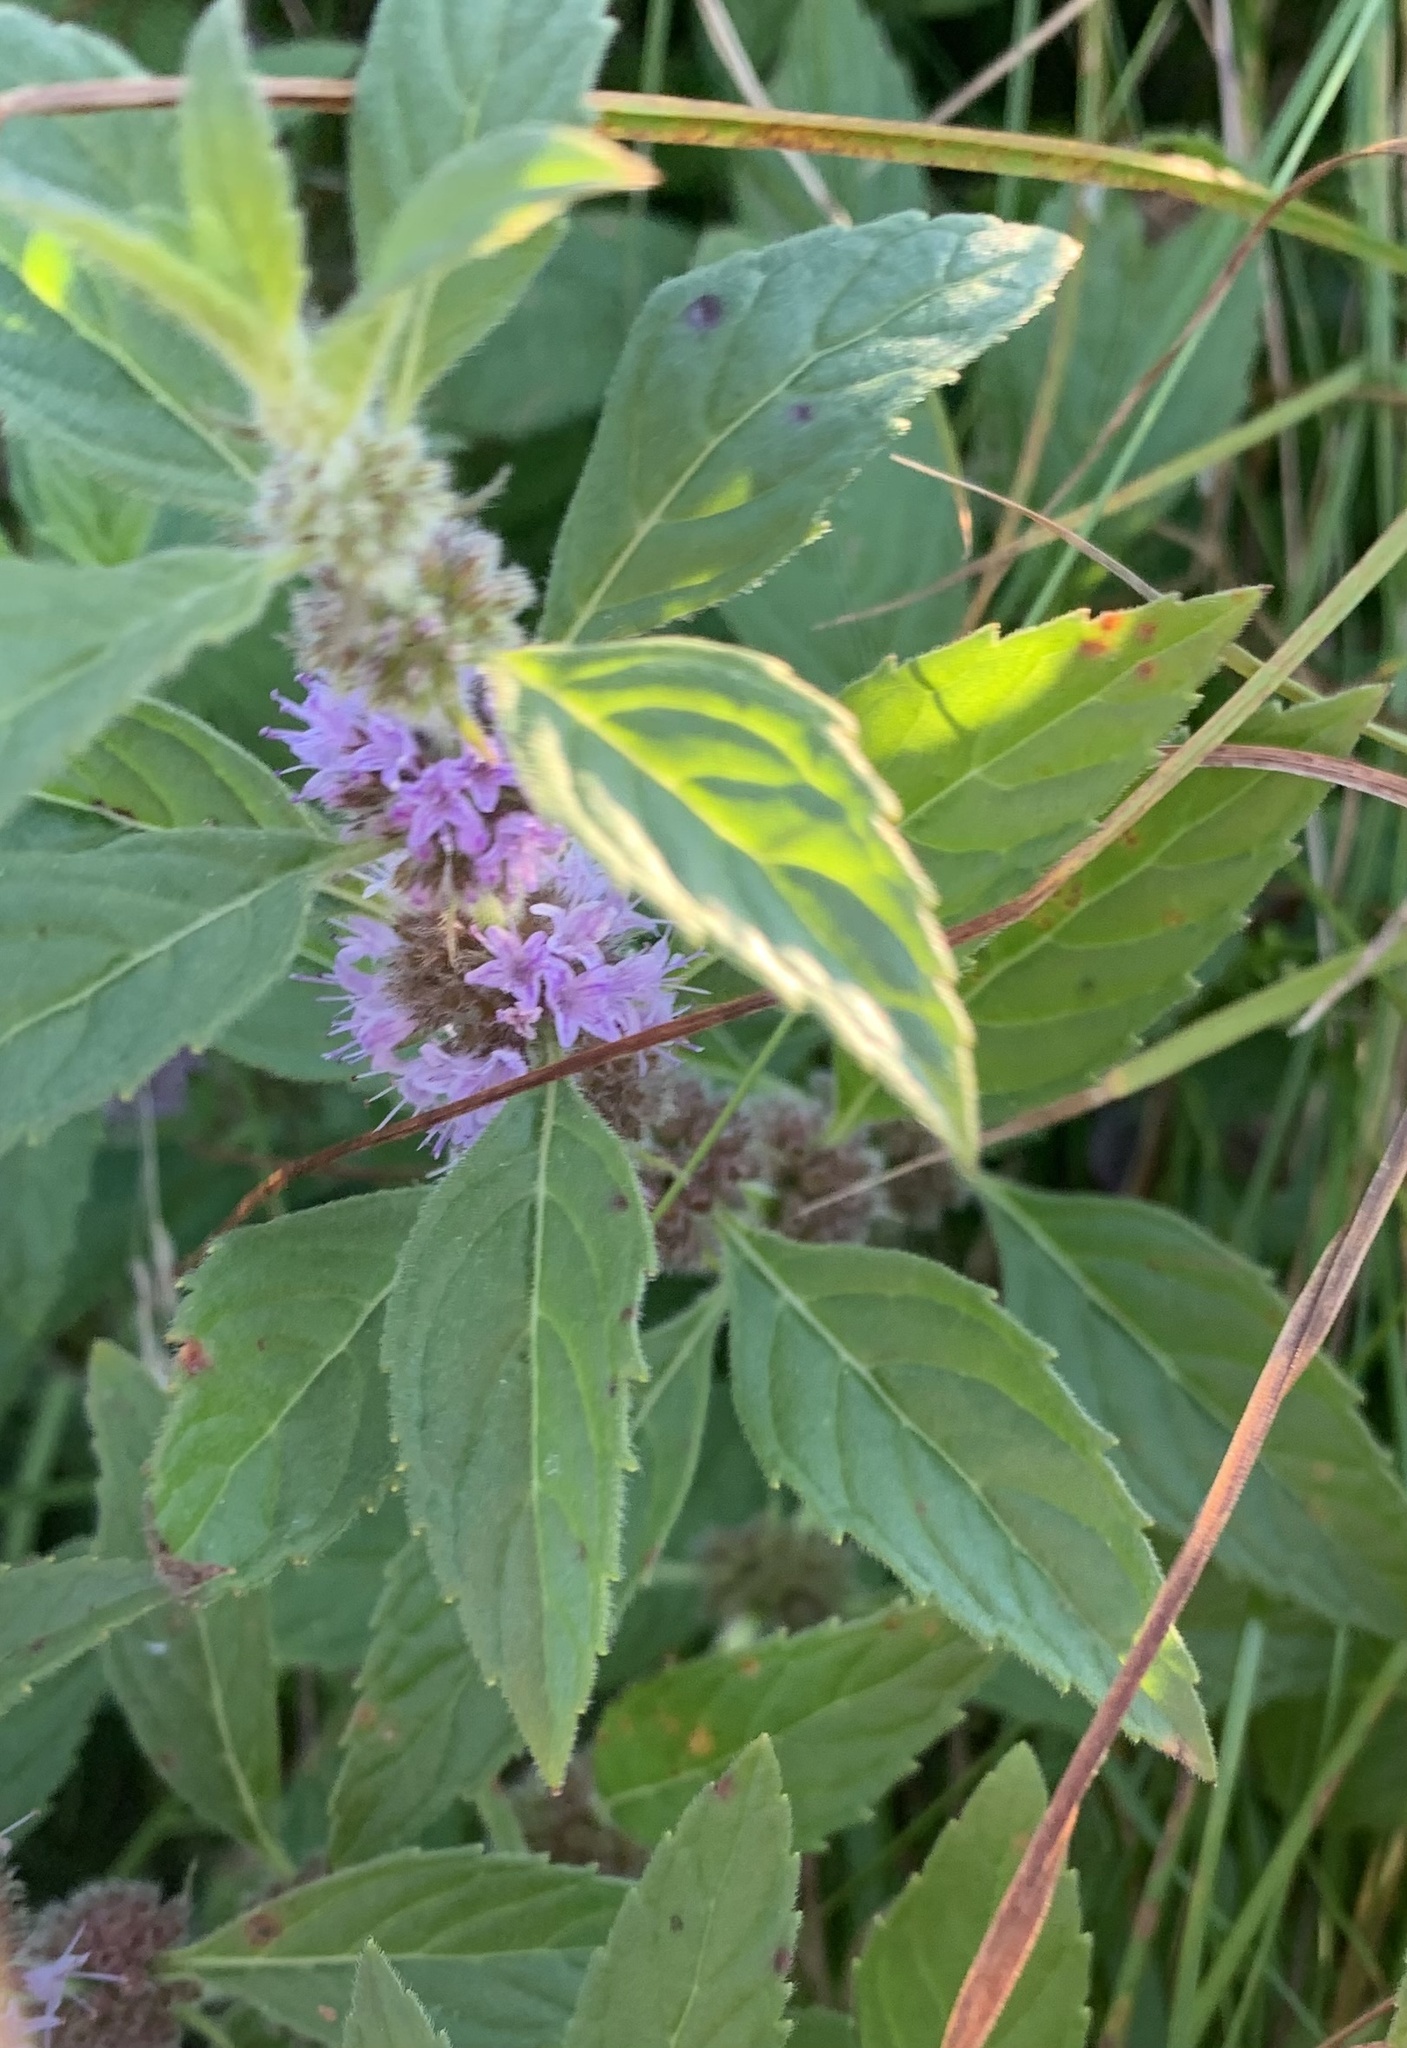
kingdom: Plantae
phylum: Tracheophyta
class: Magnoliopsida
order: Lamiales
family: Lamiaceae
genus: Mentha
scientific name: Mentha canadensis
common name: American corn mint
